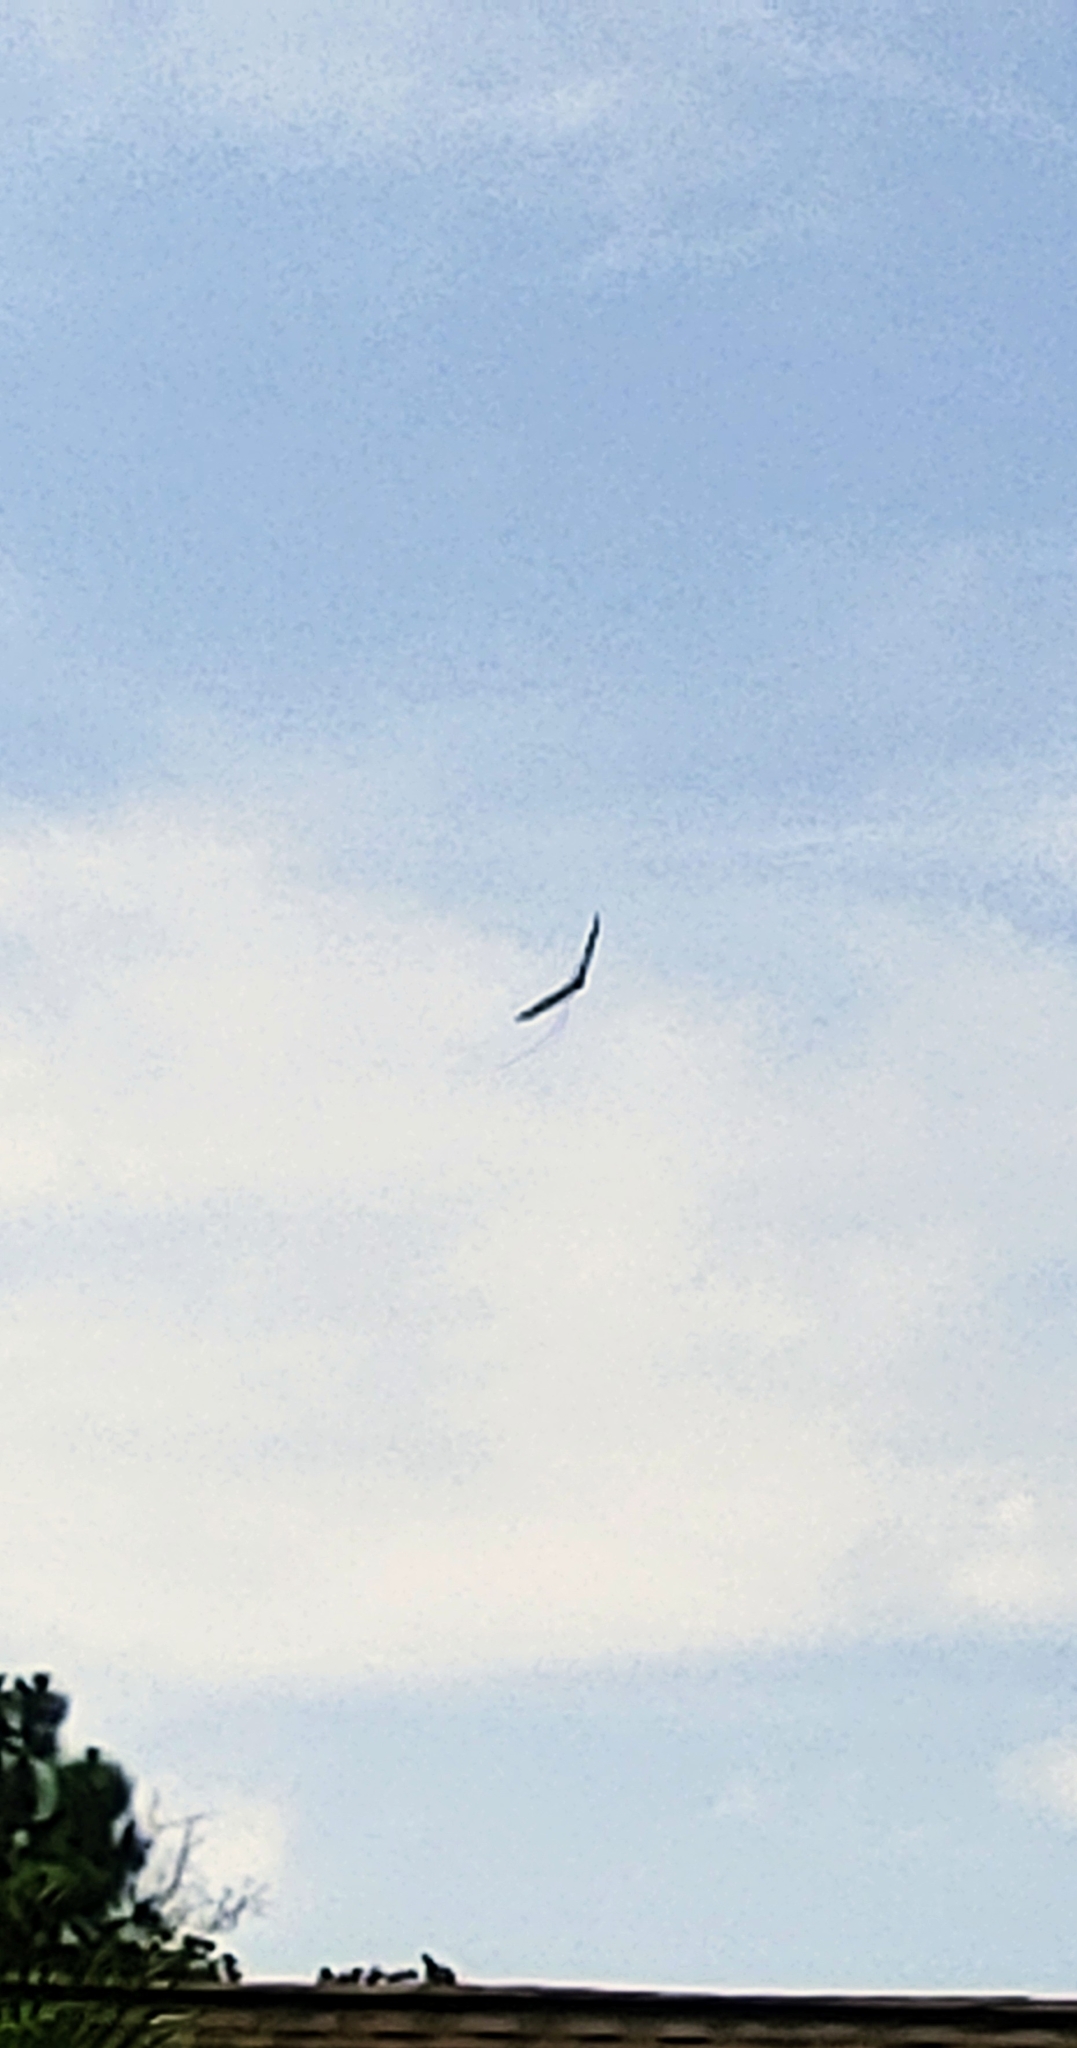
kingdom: Animalia
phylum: Chordata
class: Aves
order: Accipitriformes
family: Cathartidae
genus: Cathartes
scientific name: Cathartes aura
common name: Turkey vulture
